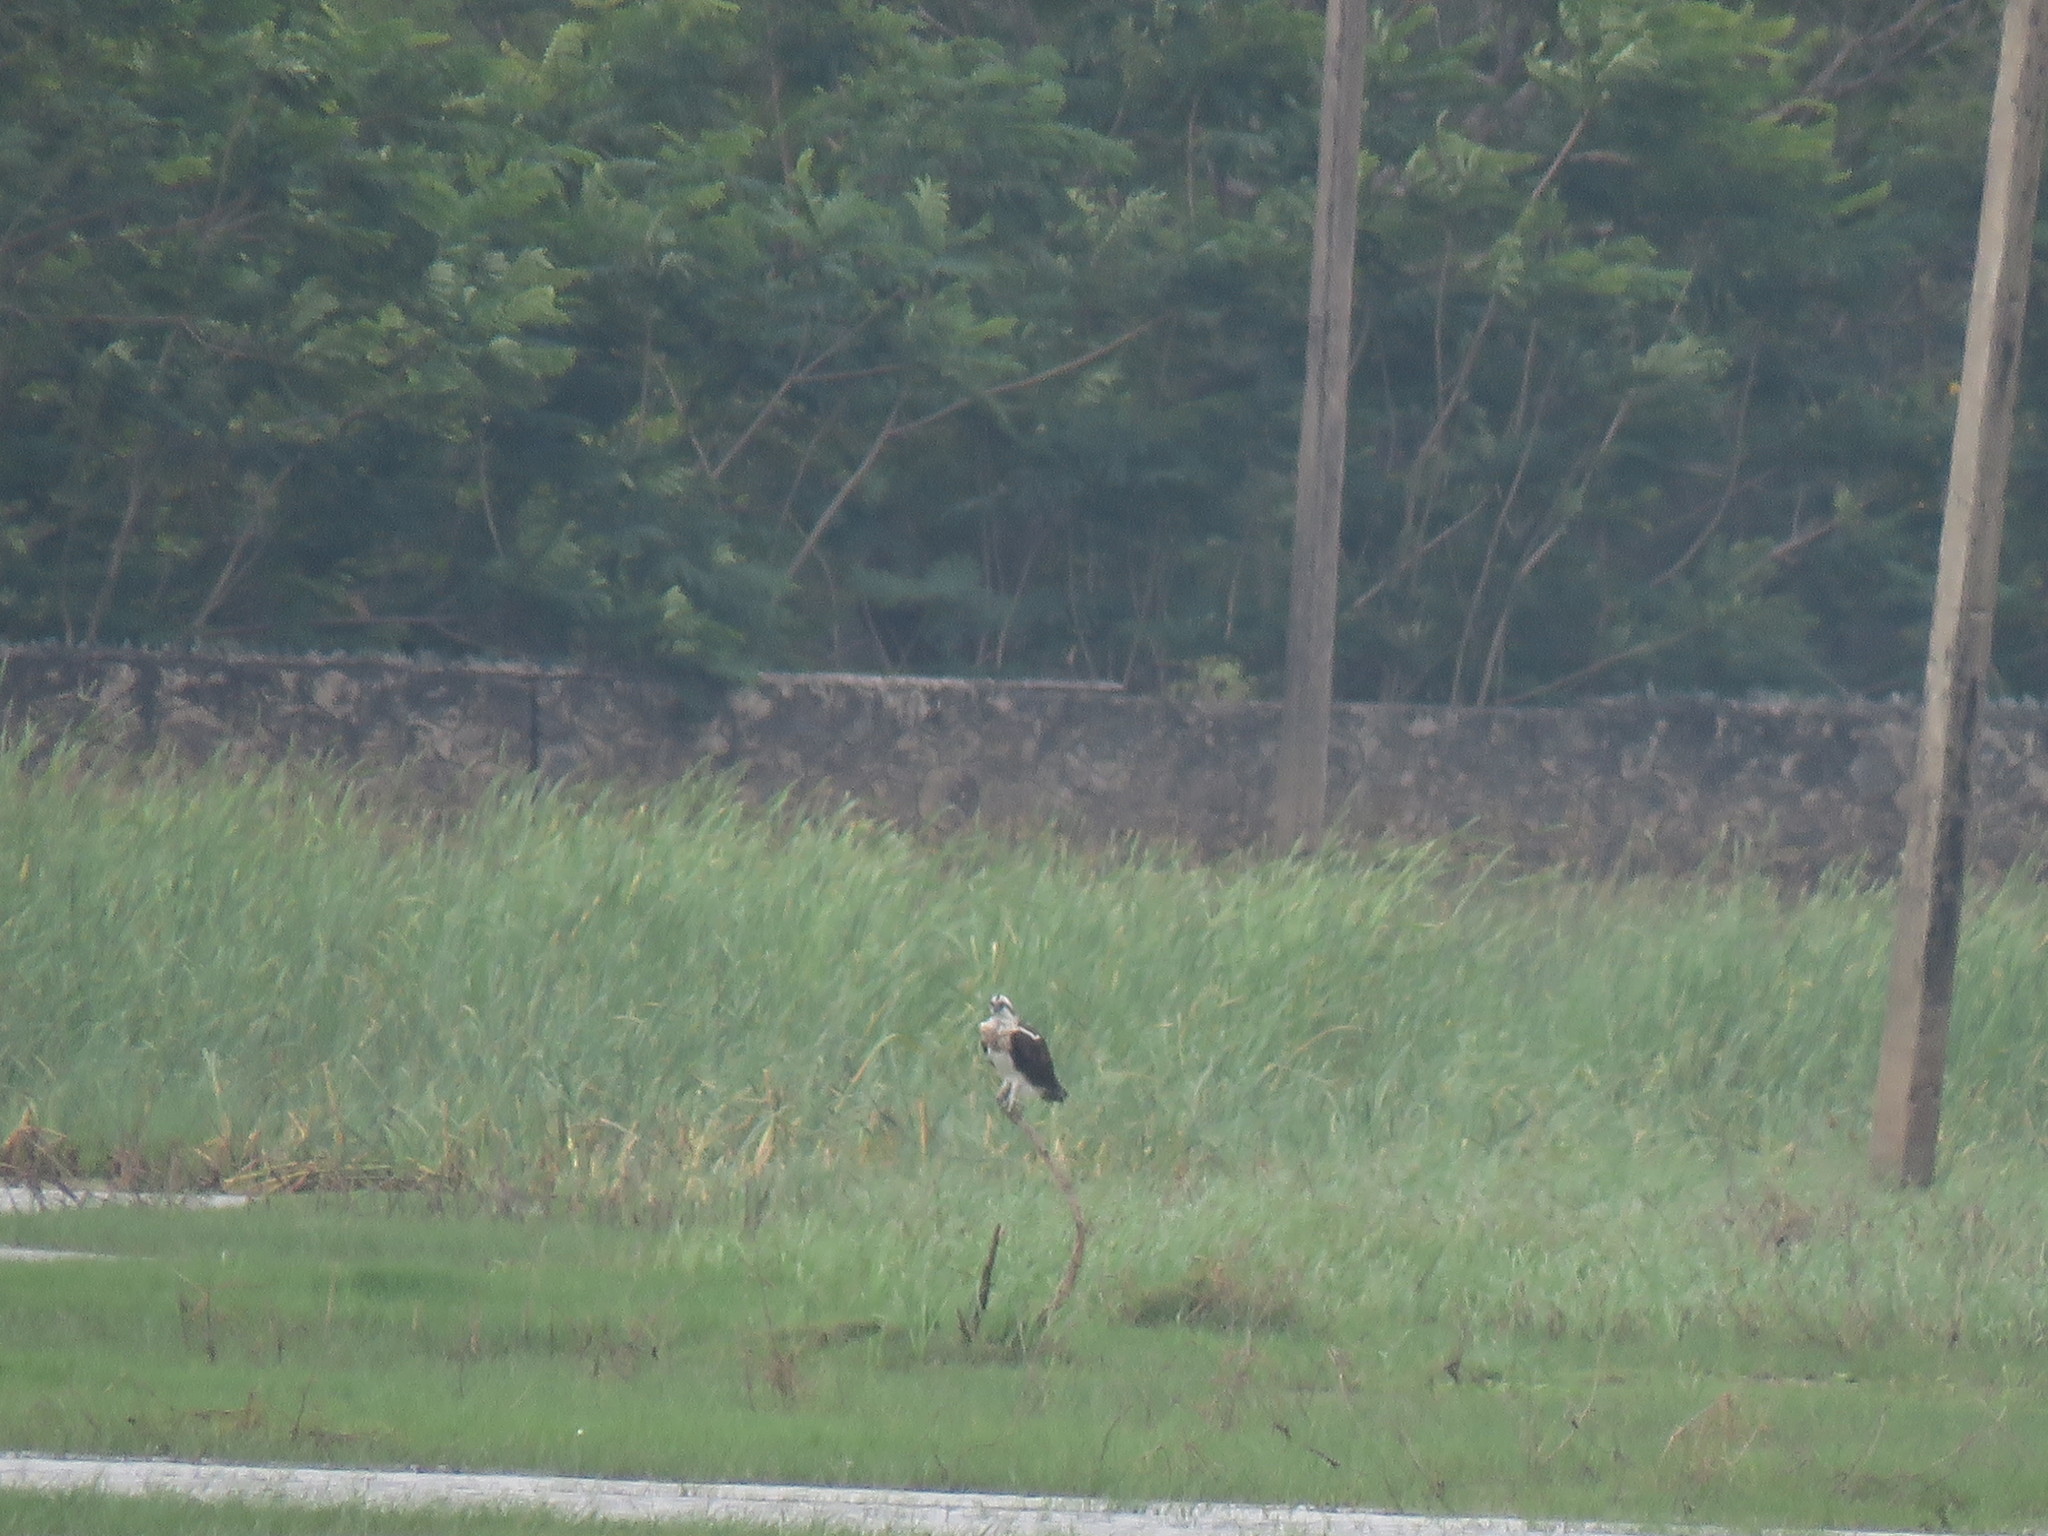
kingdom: Animalia
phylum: Chordata
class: Aves
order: Accipitriformes
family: Pandionidae
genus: Pandion
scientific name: Pandion haliaetus
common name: Osprey
